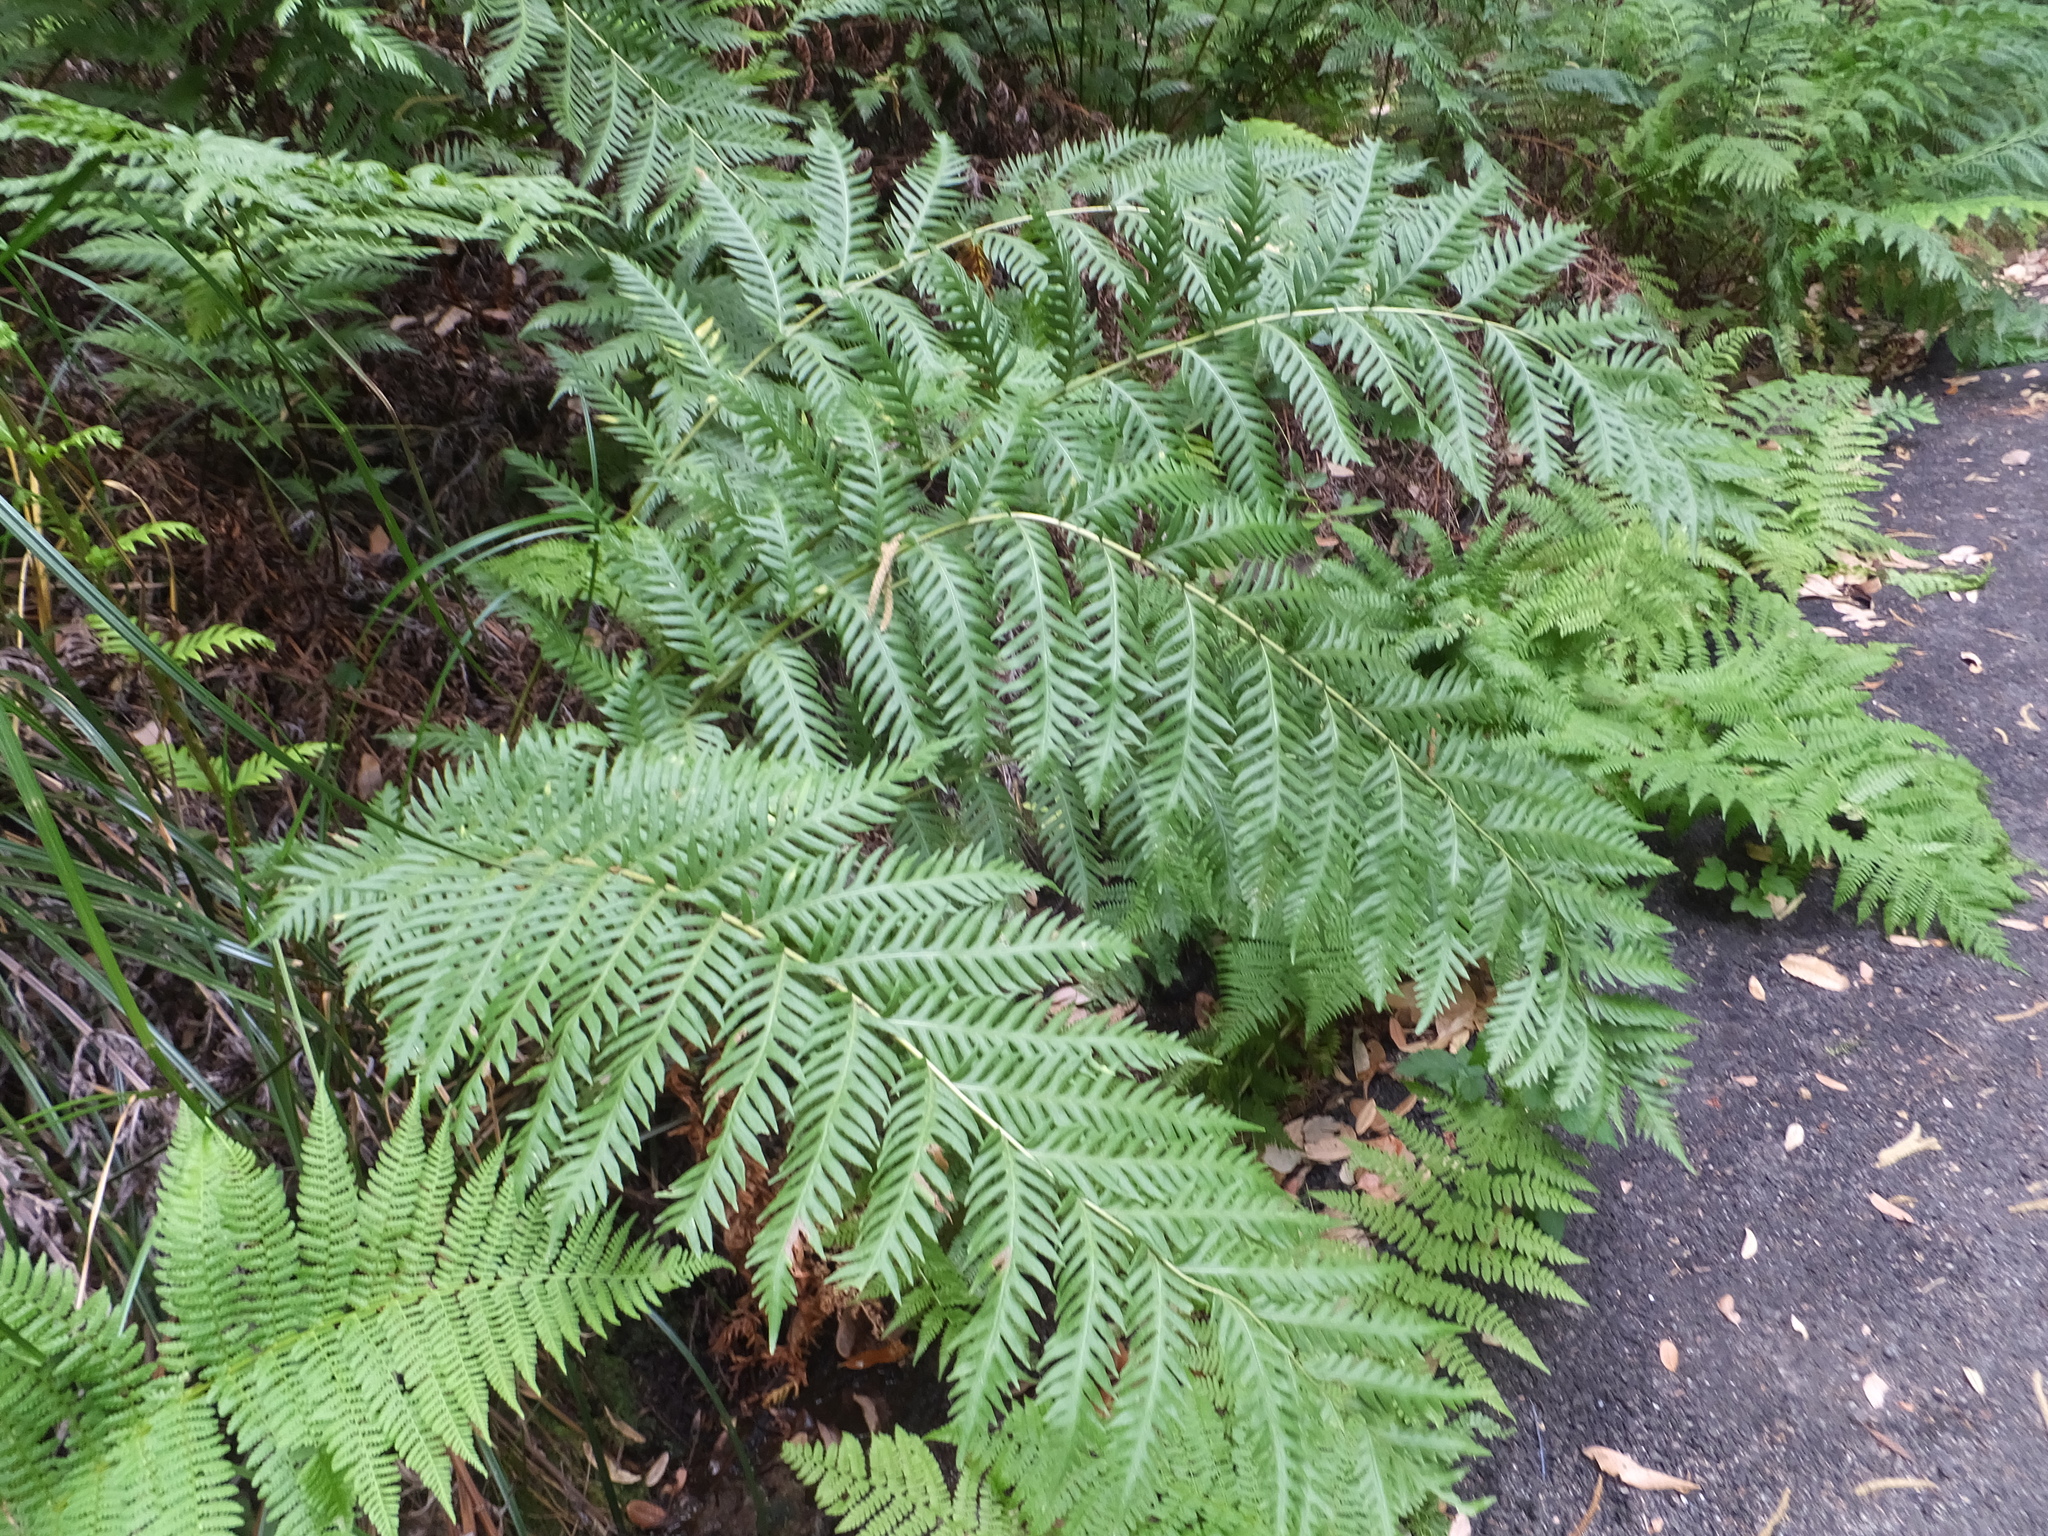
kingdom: Plantae
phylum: Tracheophyta
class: Polypodiopsida
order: Polypodiales
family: Blechnaceae
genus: Woodwardia
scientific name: Woodwardia fimbriata
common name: Giant chain fern
